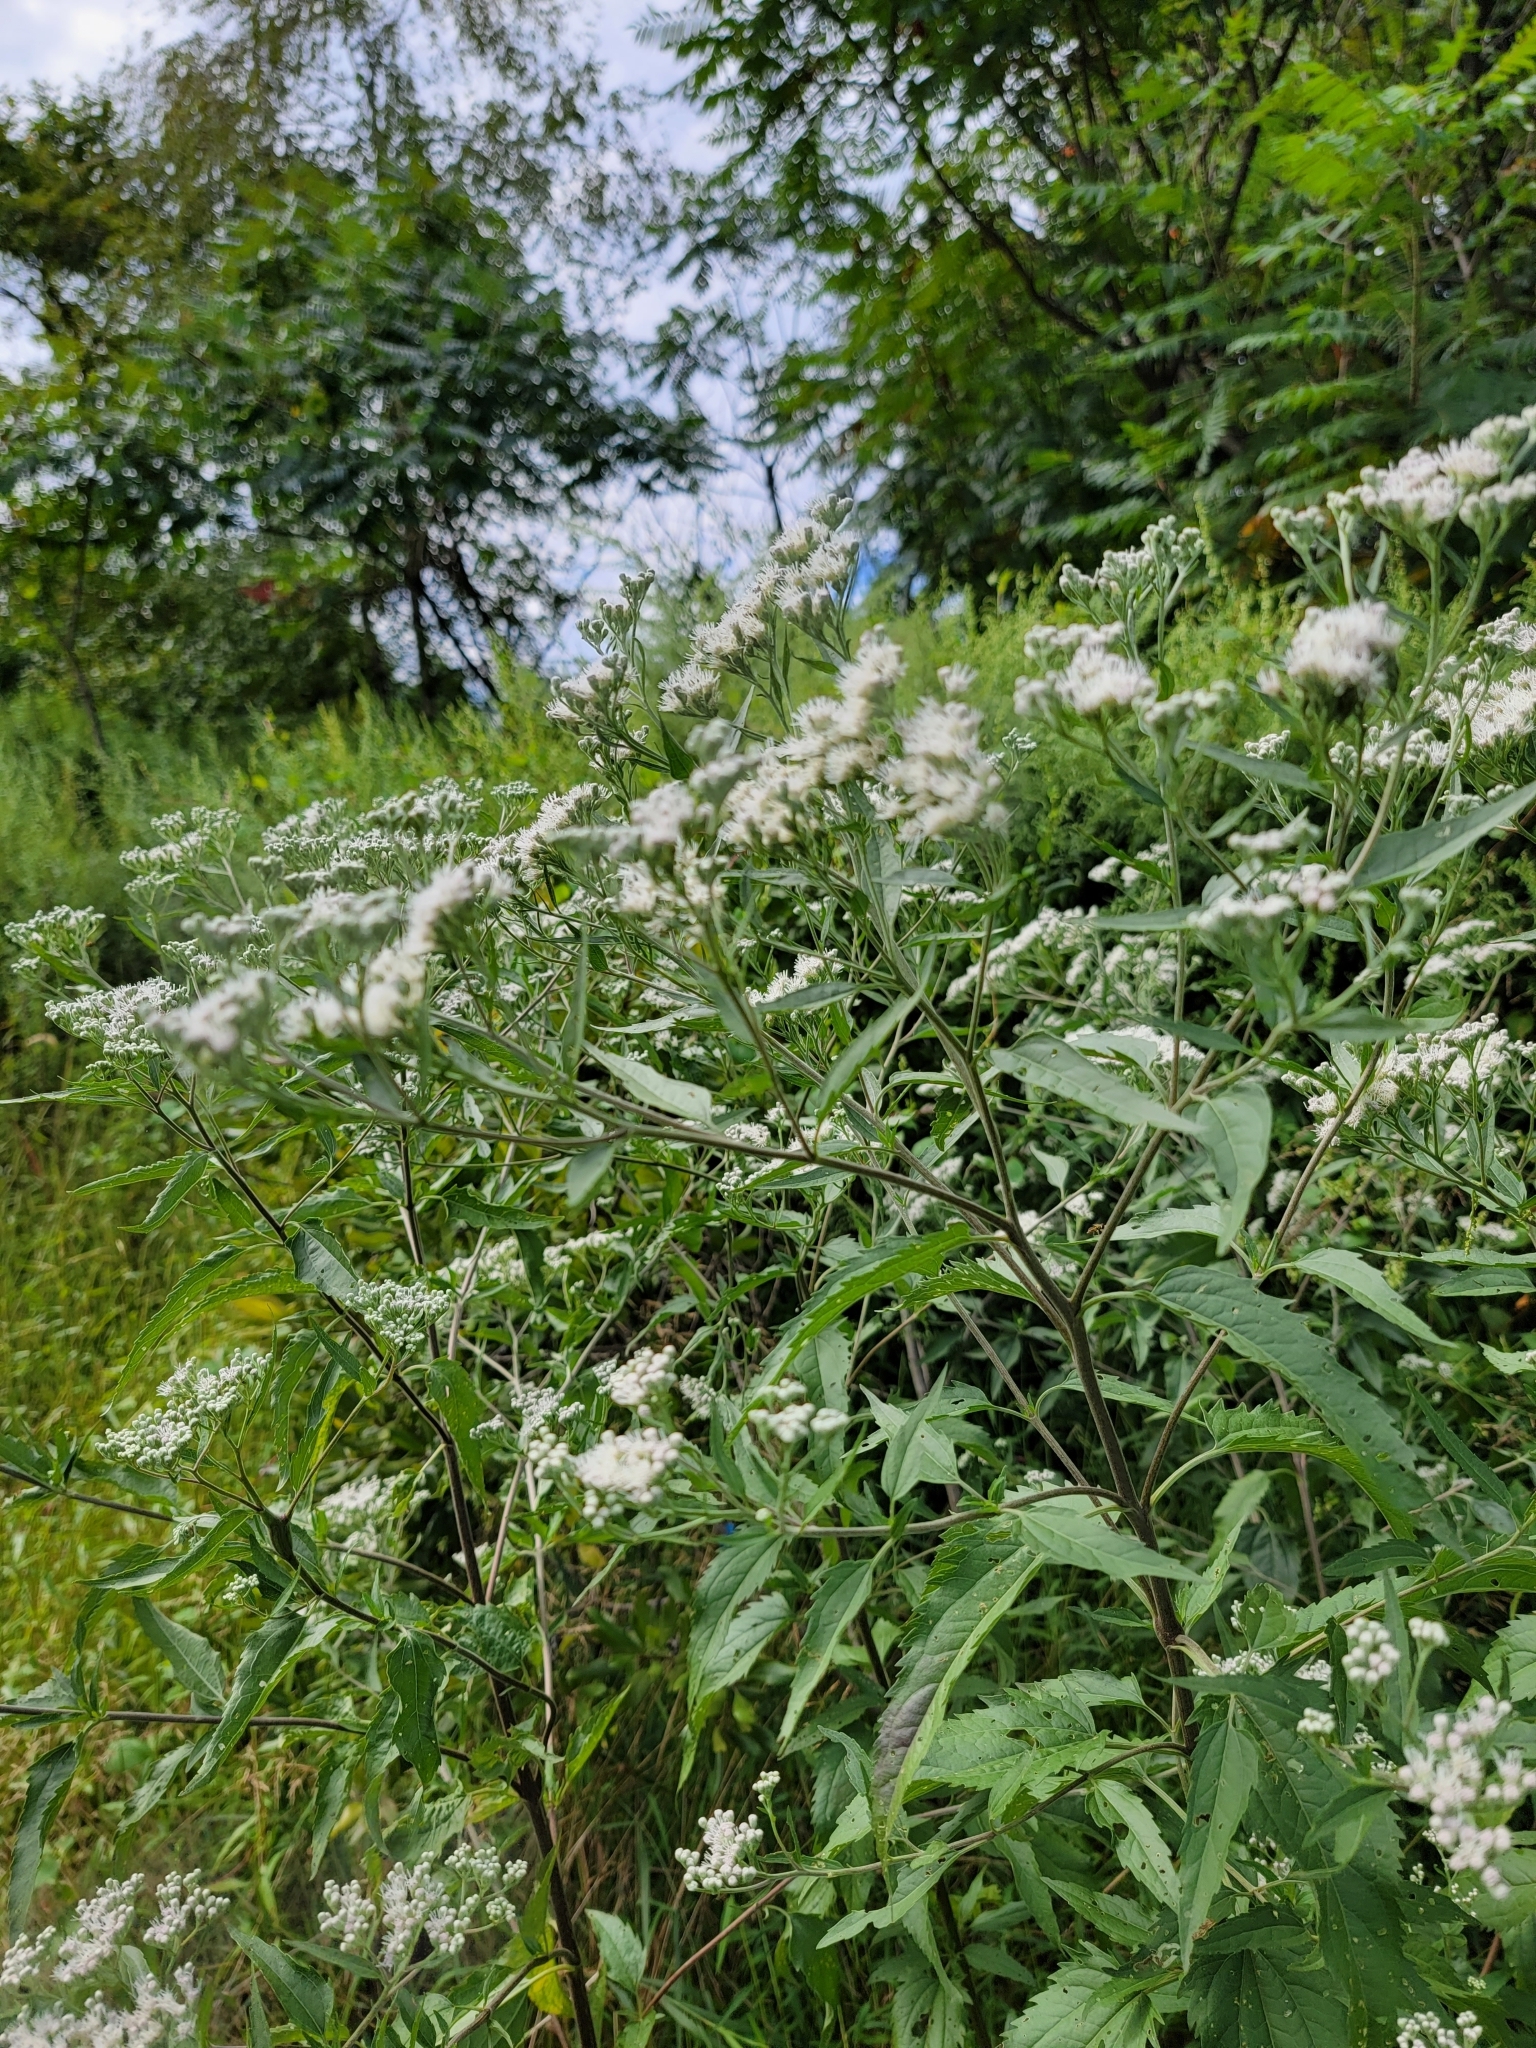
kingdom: Plantae
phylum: Tracheophyta
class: Magnoliopsida
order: Asterales
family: Asteraceae
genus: Eupatorium
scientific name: Eupatorium serotinum
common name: Late boneset
